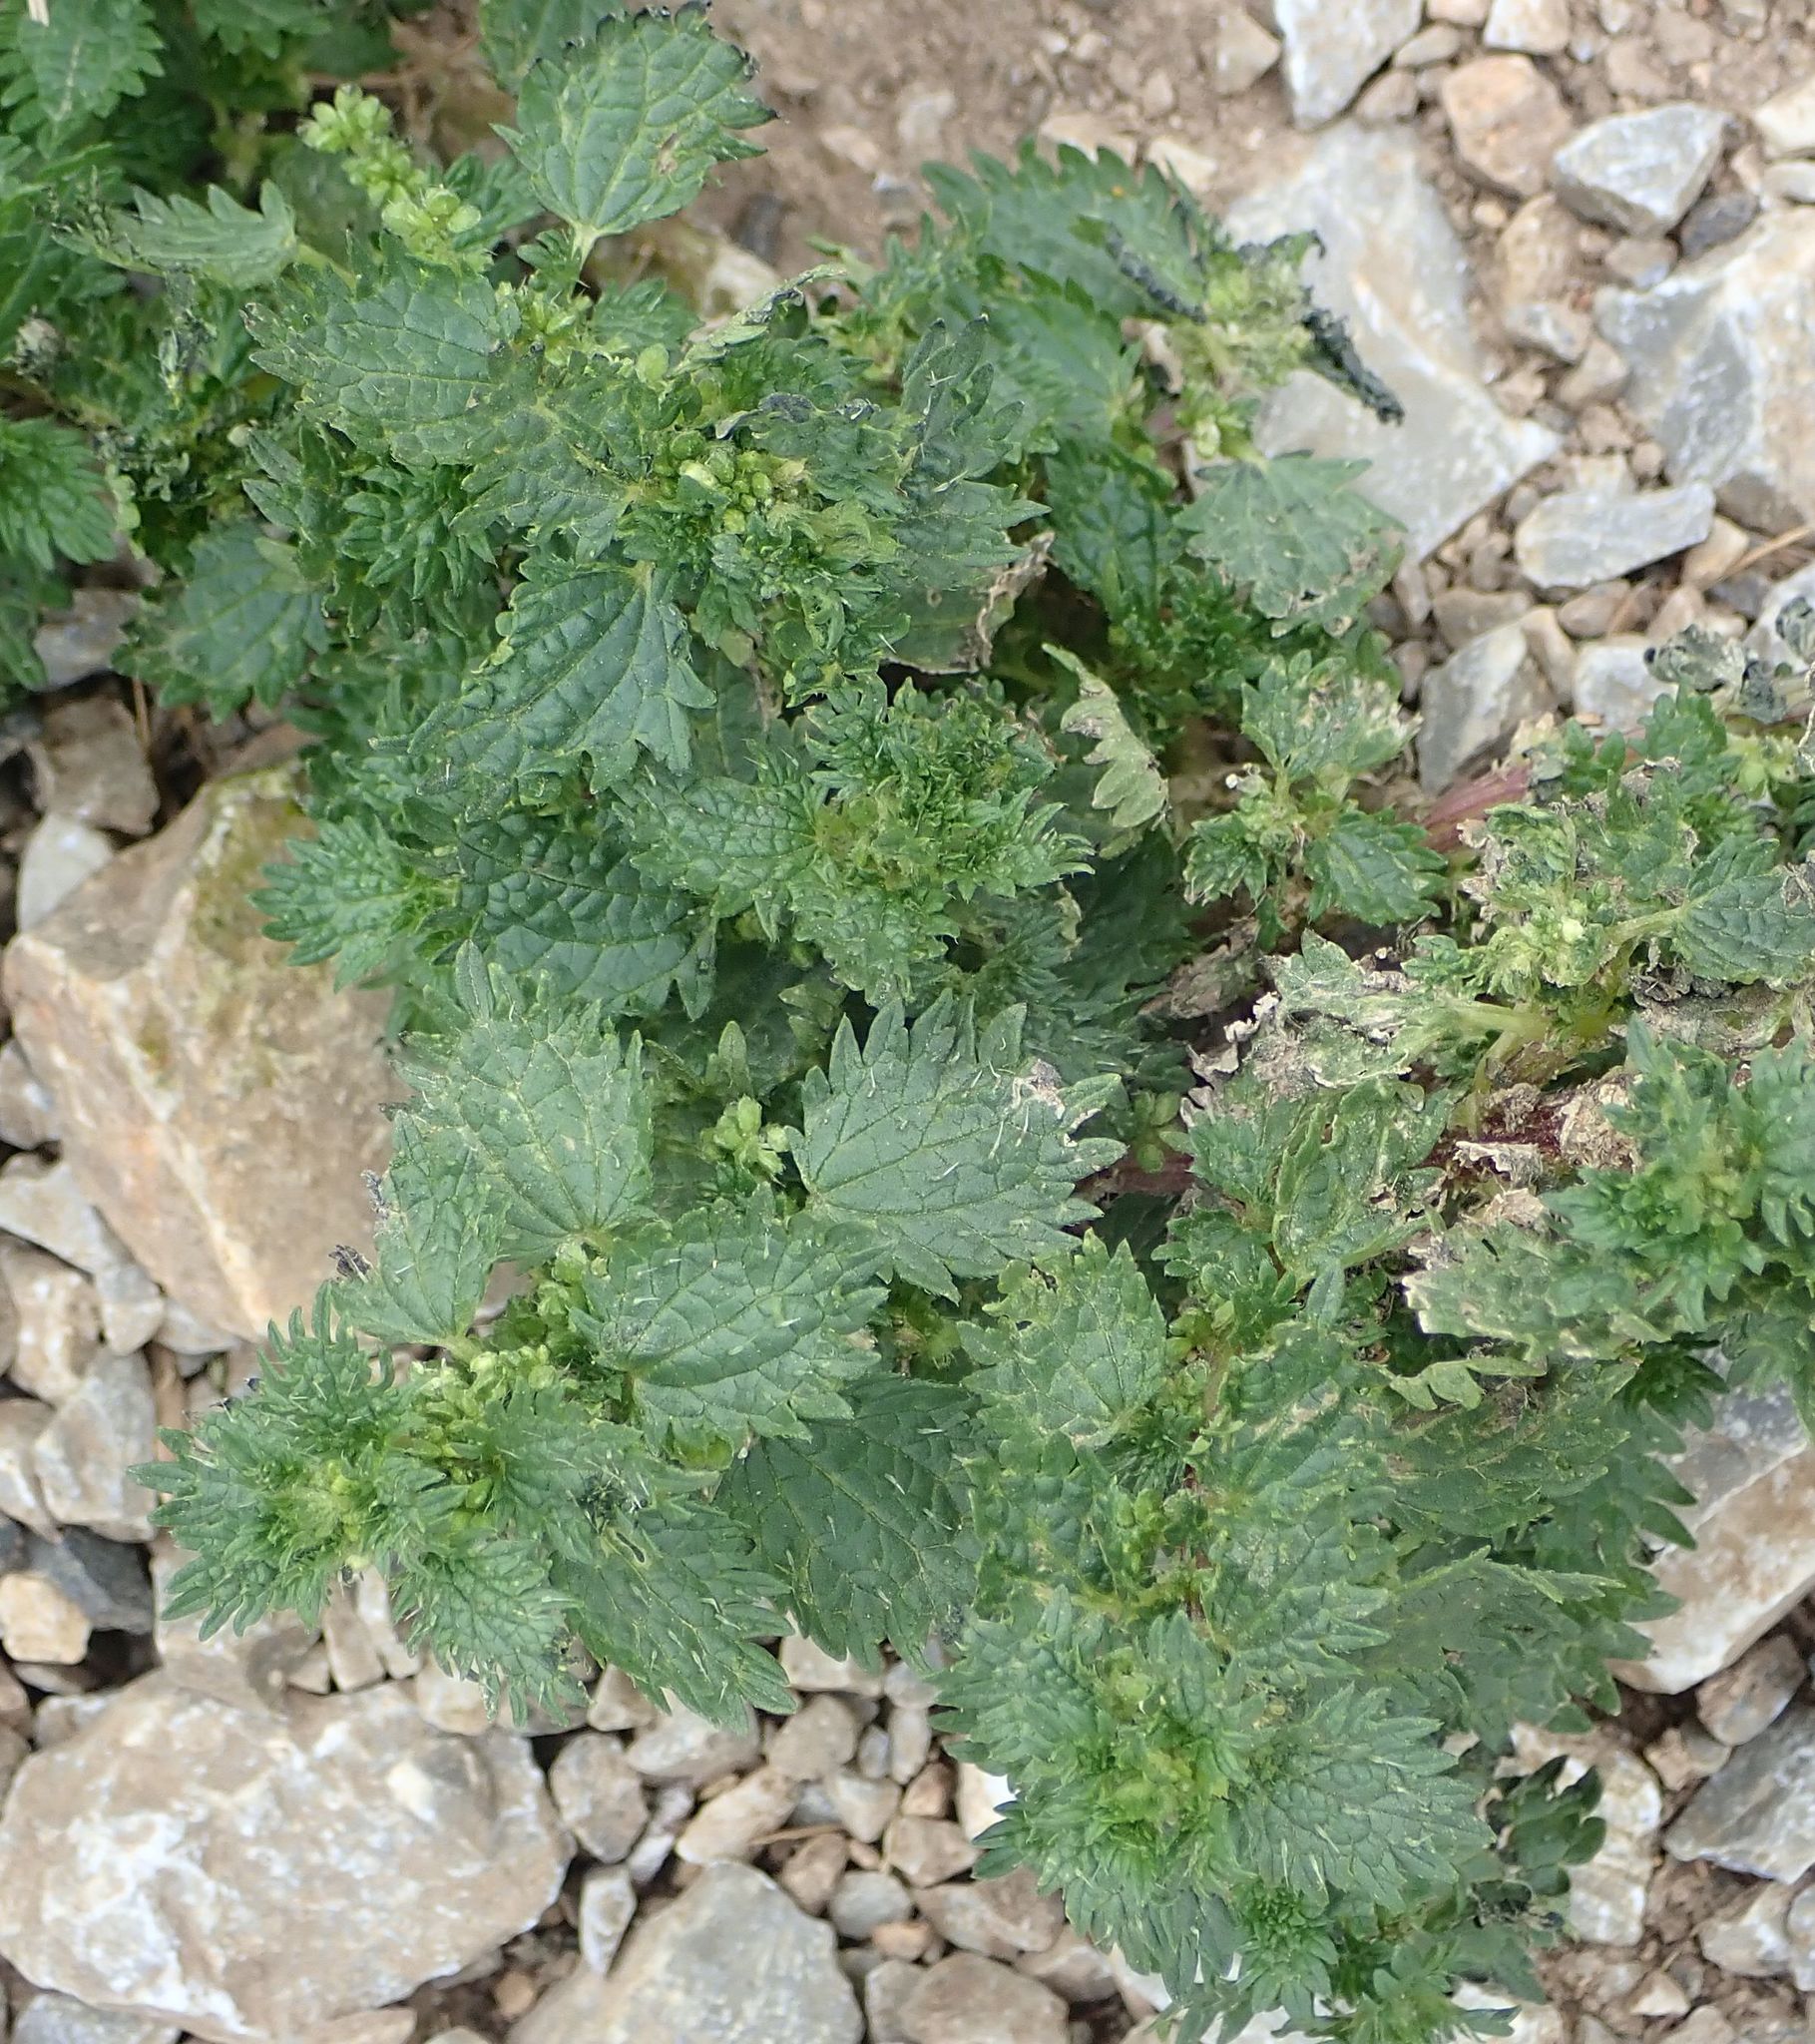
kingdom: Plantae
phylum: Tracheophyta
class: Magnoliopsida
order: Rosales
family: Urticaceae
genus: Urtica
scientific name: Urtica urens
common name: Dwarf nettle
